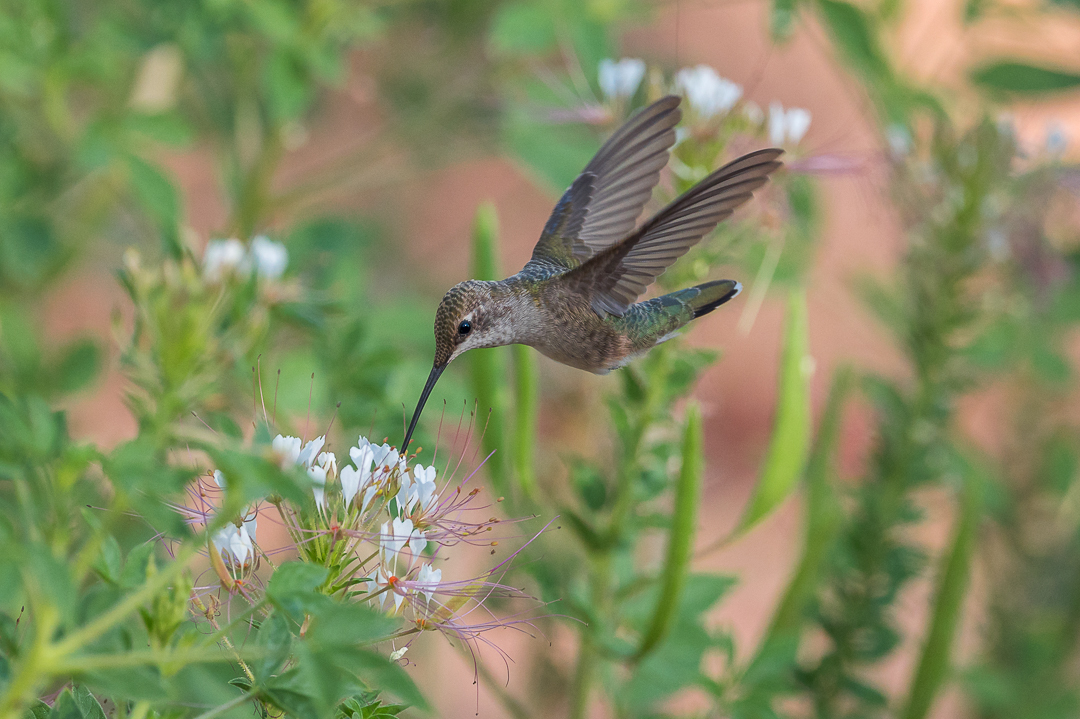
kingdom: Animalia
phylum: Chordata
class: Aves
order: Apodiformes
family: Trochilidae
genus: Archilochus
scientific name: Archilochus alexandri
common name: Black-chinned hummingbird
